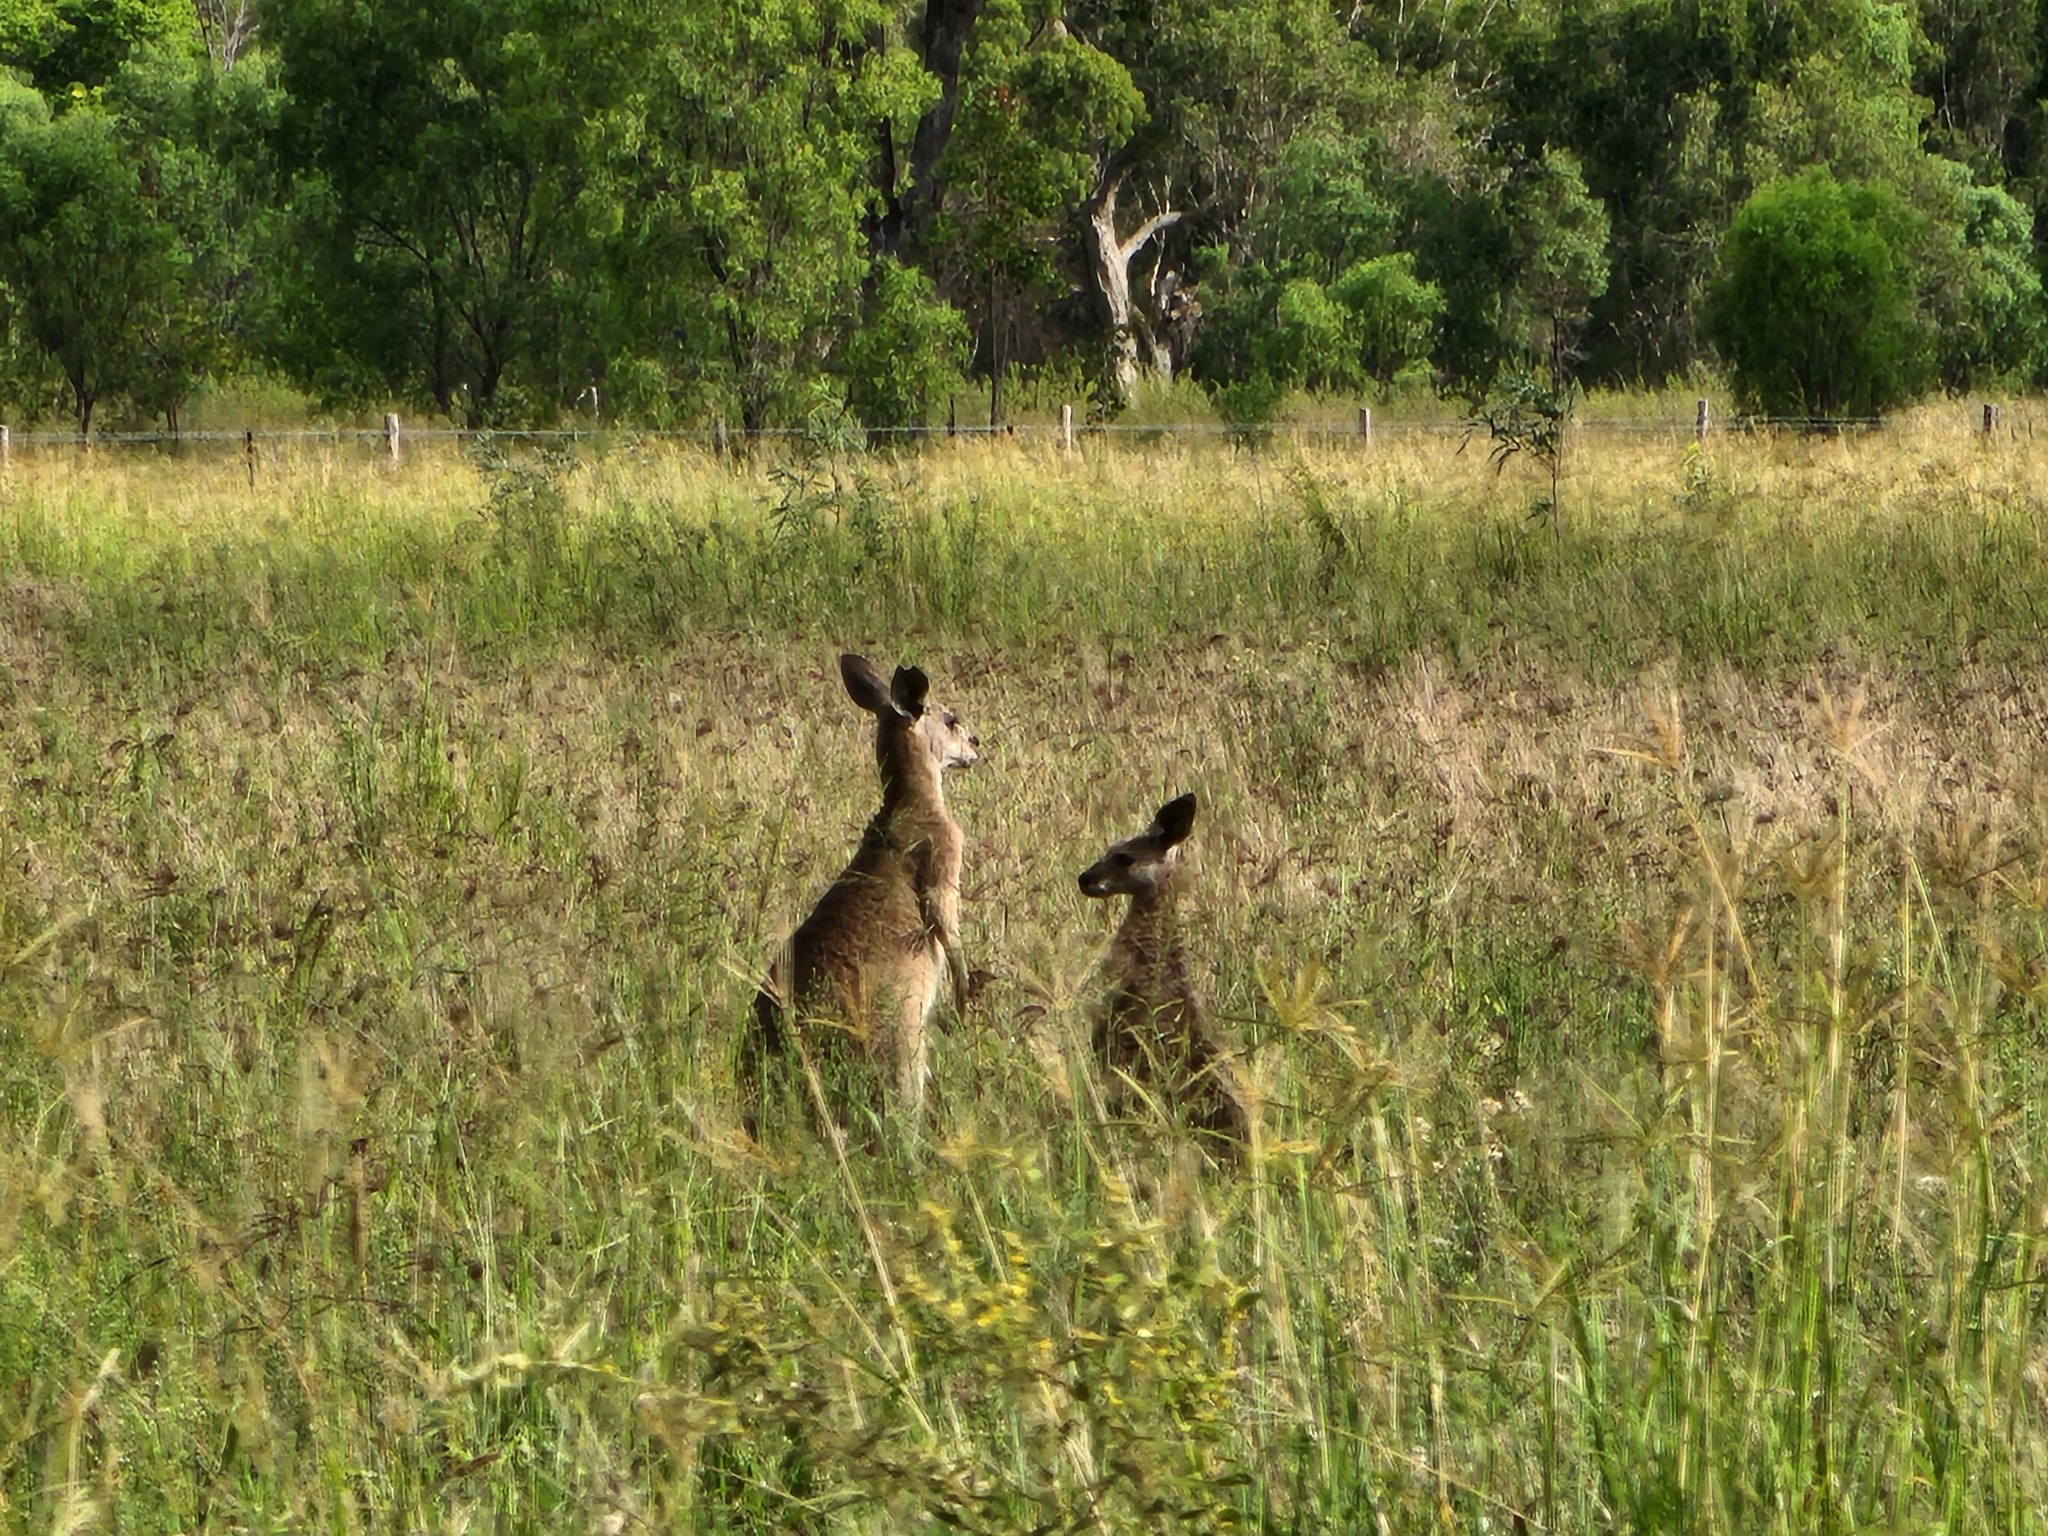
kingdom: Animalia
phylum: Chordata
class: Mammalia
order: Diprotodontia
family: Macropodidae
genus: Macropus
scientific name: Macropus giganteus
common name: Eastern grey kangaroo
